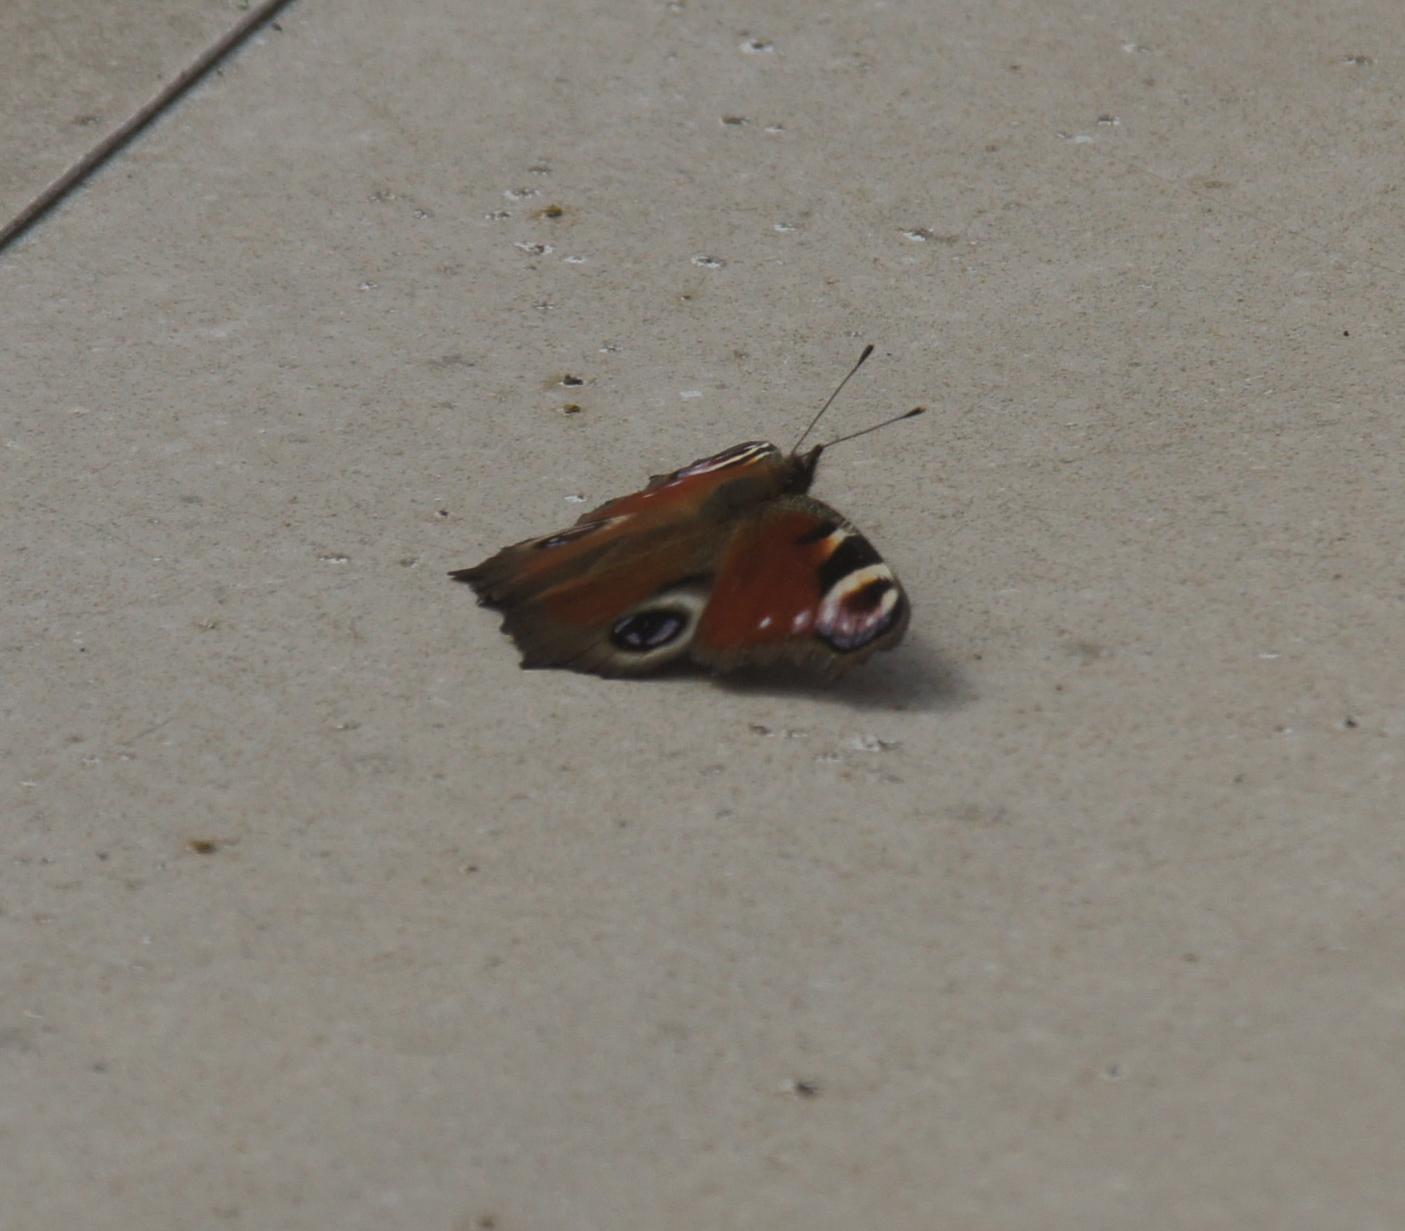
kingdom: Animalia
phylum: Arthropoda
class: Insecta
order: Lepidoptera
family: Nymphalidae
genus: Aglais
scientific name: Aglais io
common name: Peacock
